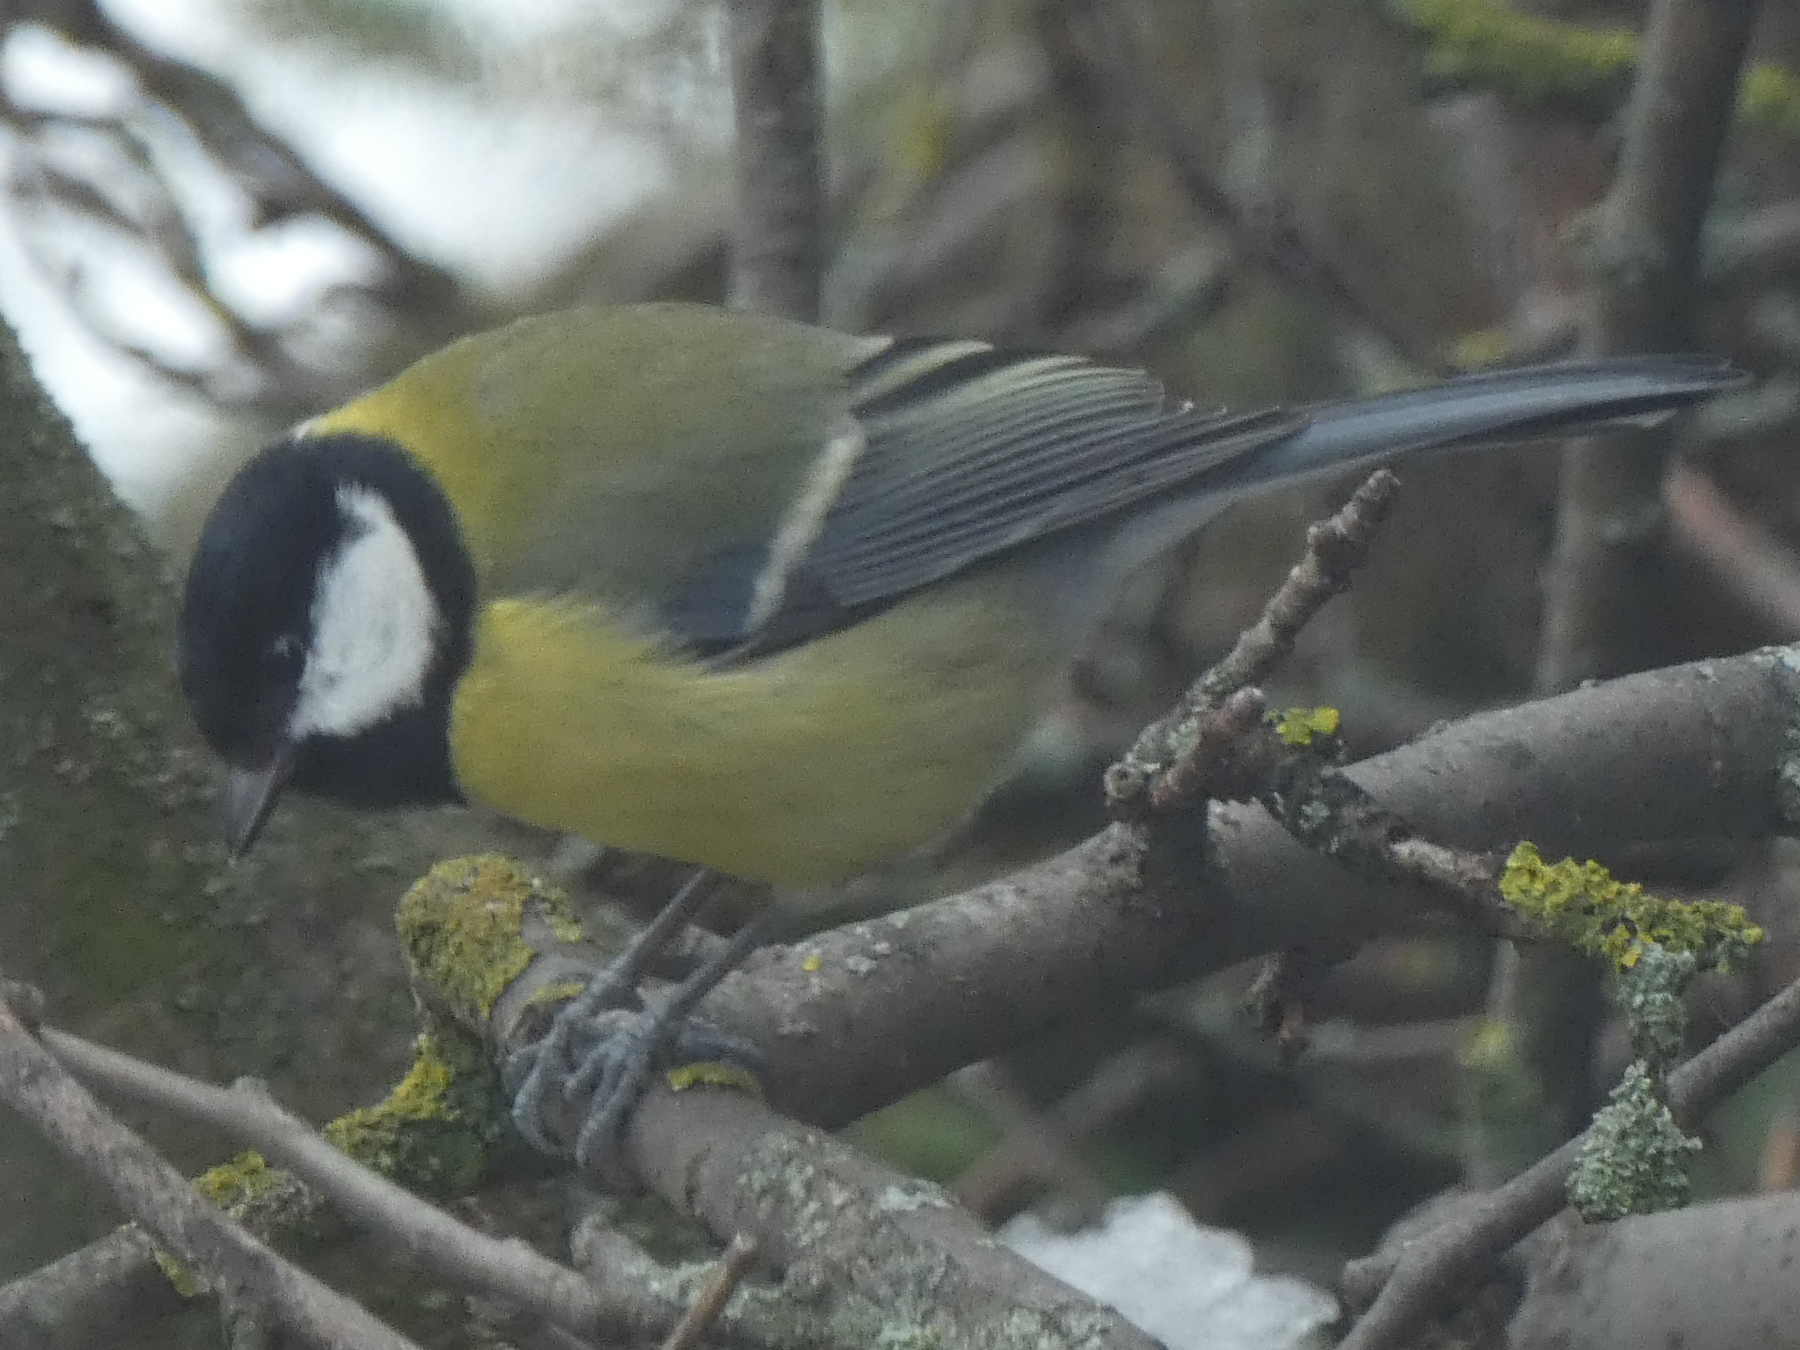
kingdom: Animalia
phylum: Chordata
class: Aves
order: Passeriformes
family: Paridae
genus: Parus
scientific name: Parus major
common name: Great tit
